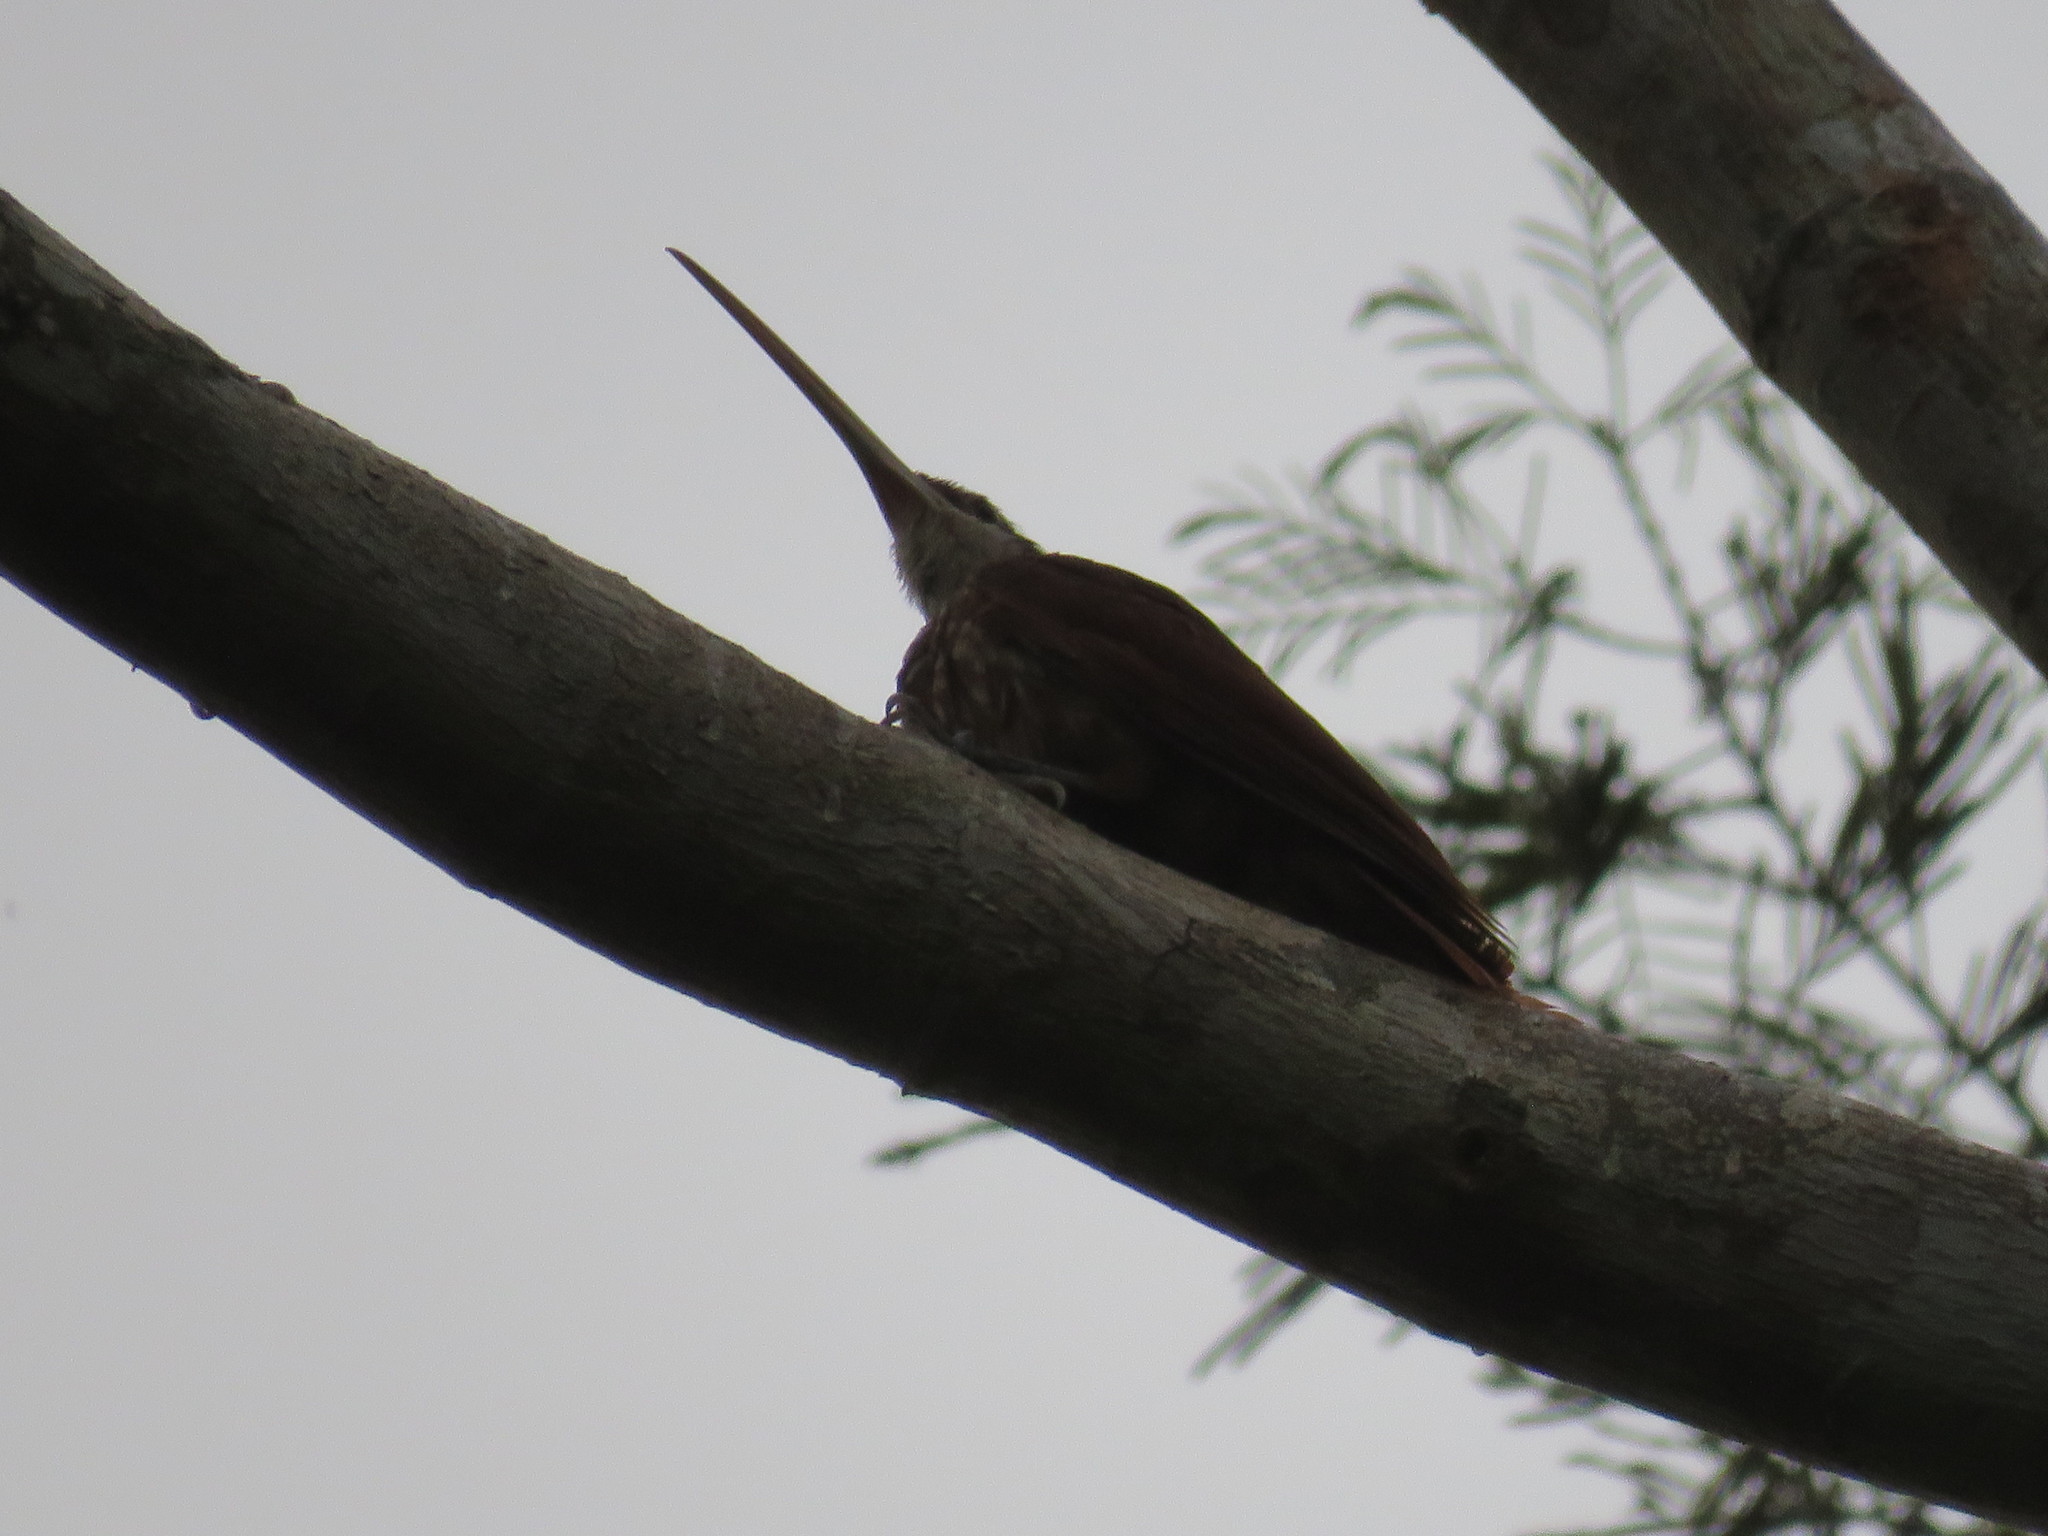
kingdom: Animalia
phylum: Chordata
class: Aves
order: Passeriformes
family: Furnariidae
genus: Nasica
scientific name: Nasica longirostris
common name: Long-billed woodcreeper
